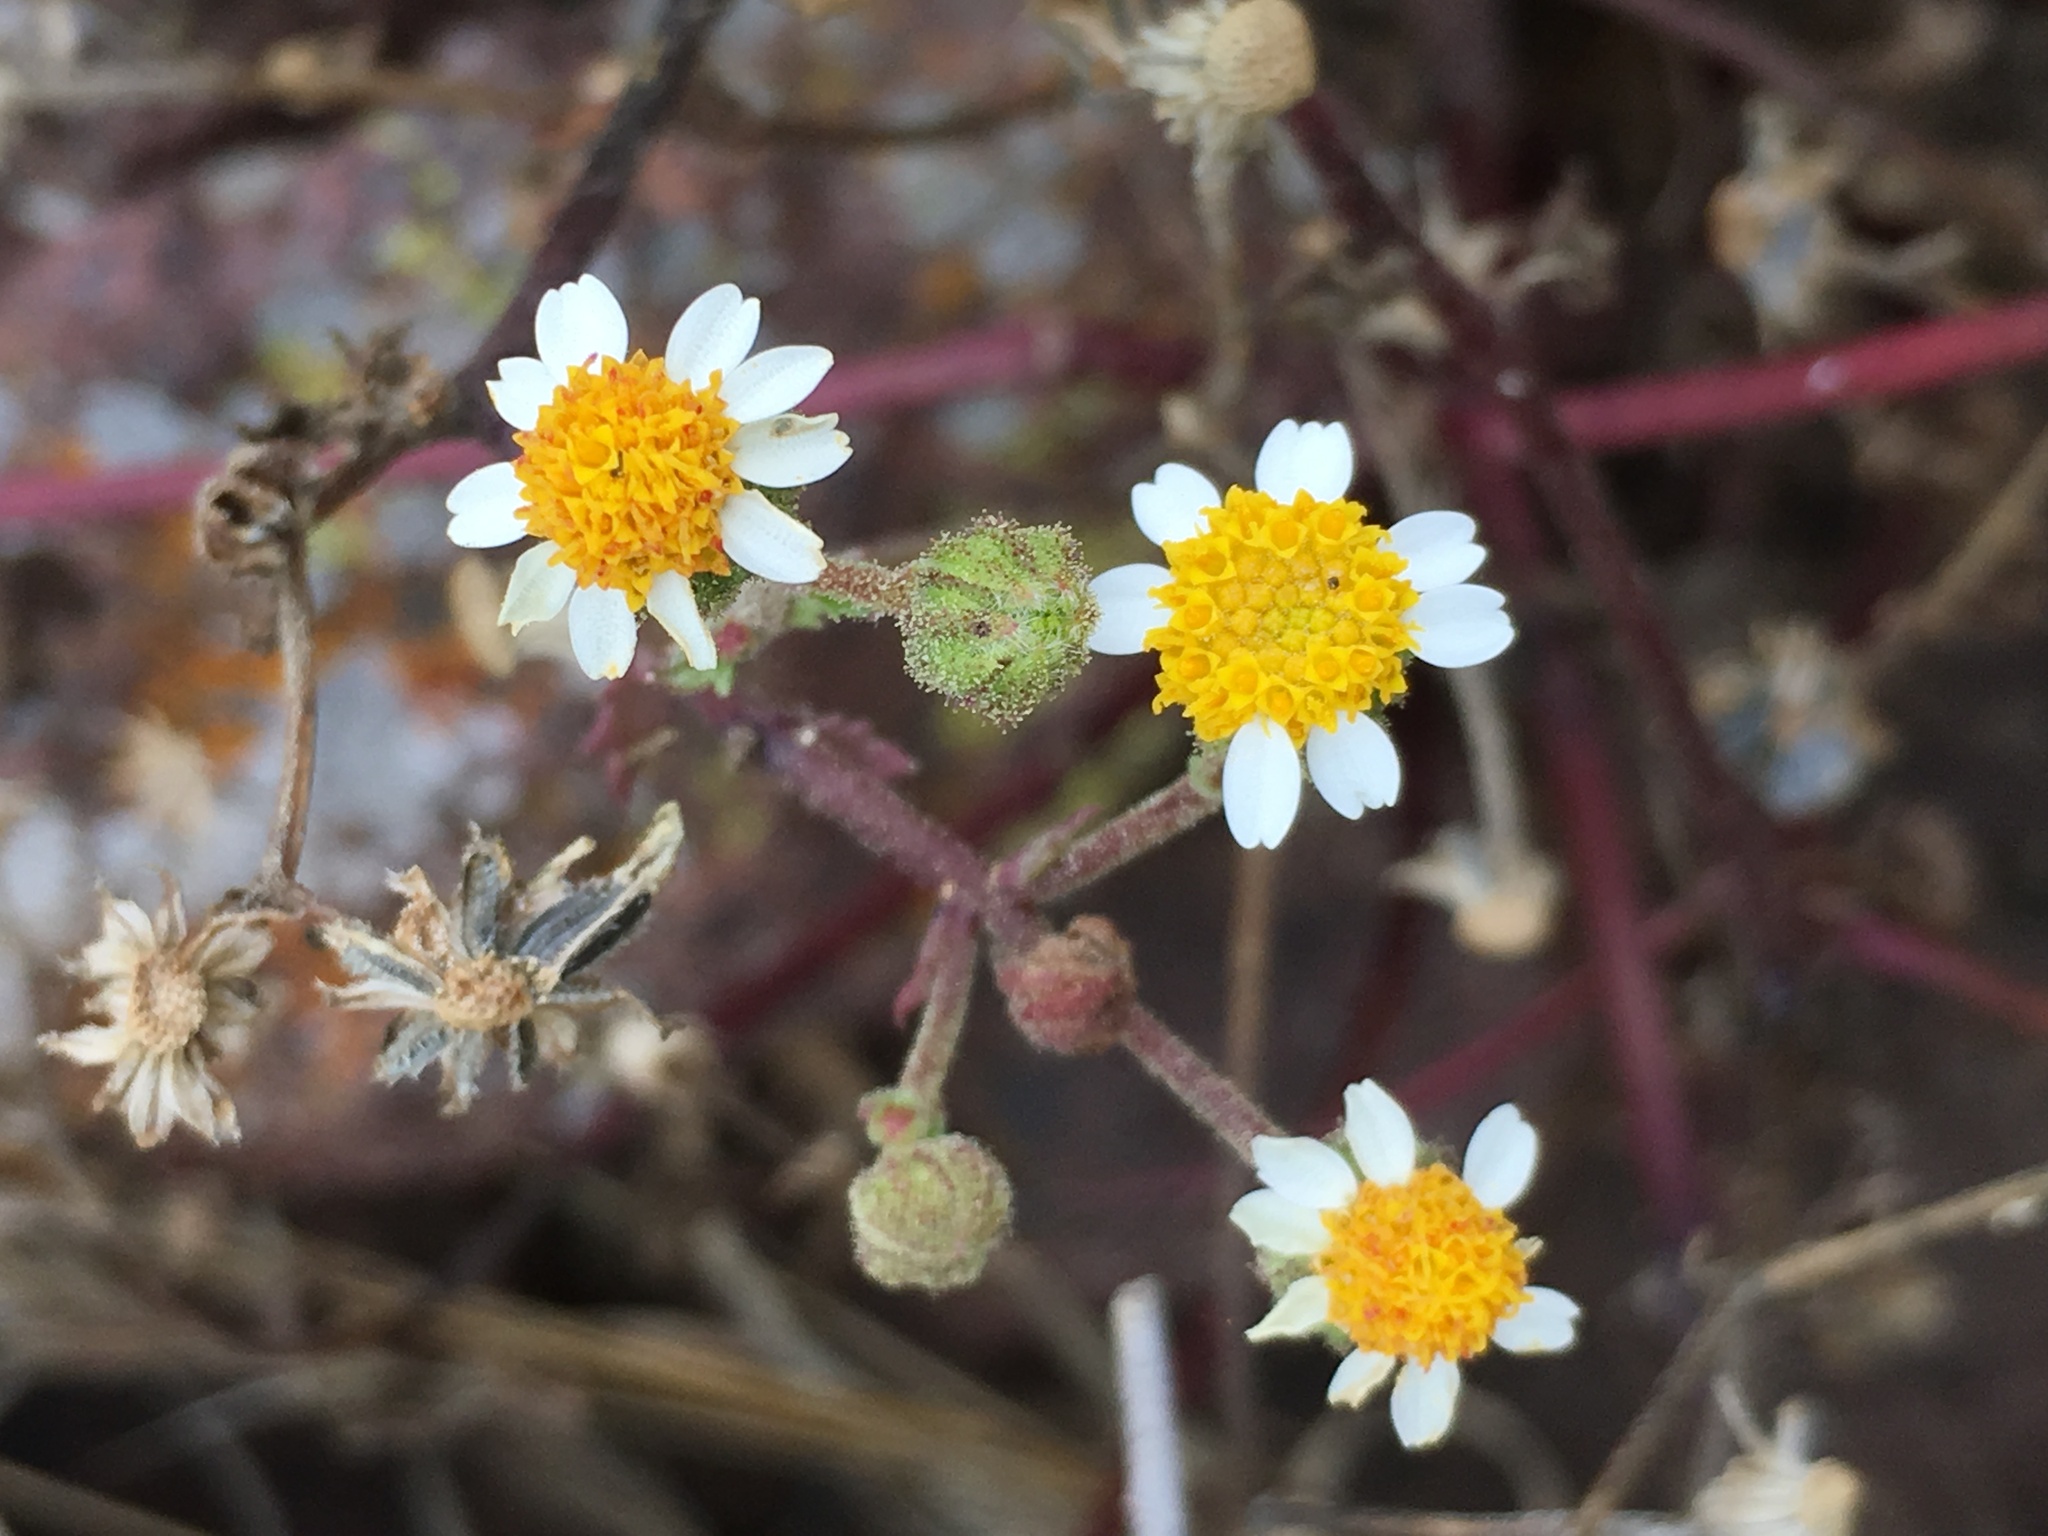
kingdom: Plantae
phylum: Tracheophyta
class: Magnoliopsida
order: Asterales
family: Asteraceae
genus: Laphamia
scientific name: Laphamia emoryi
